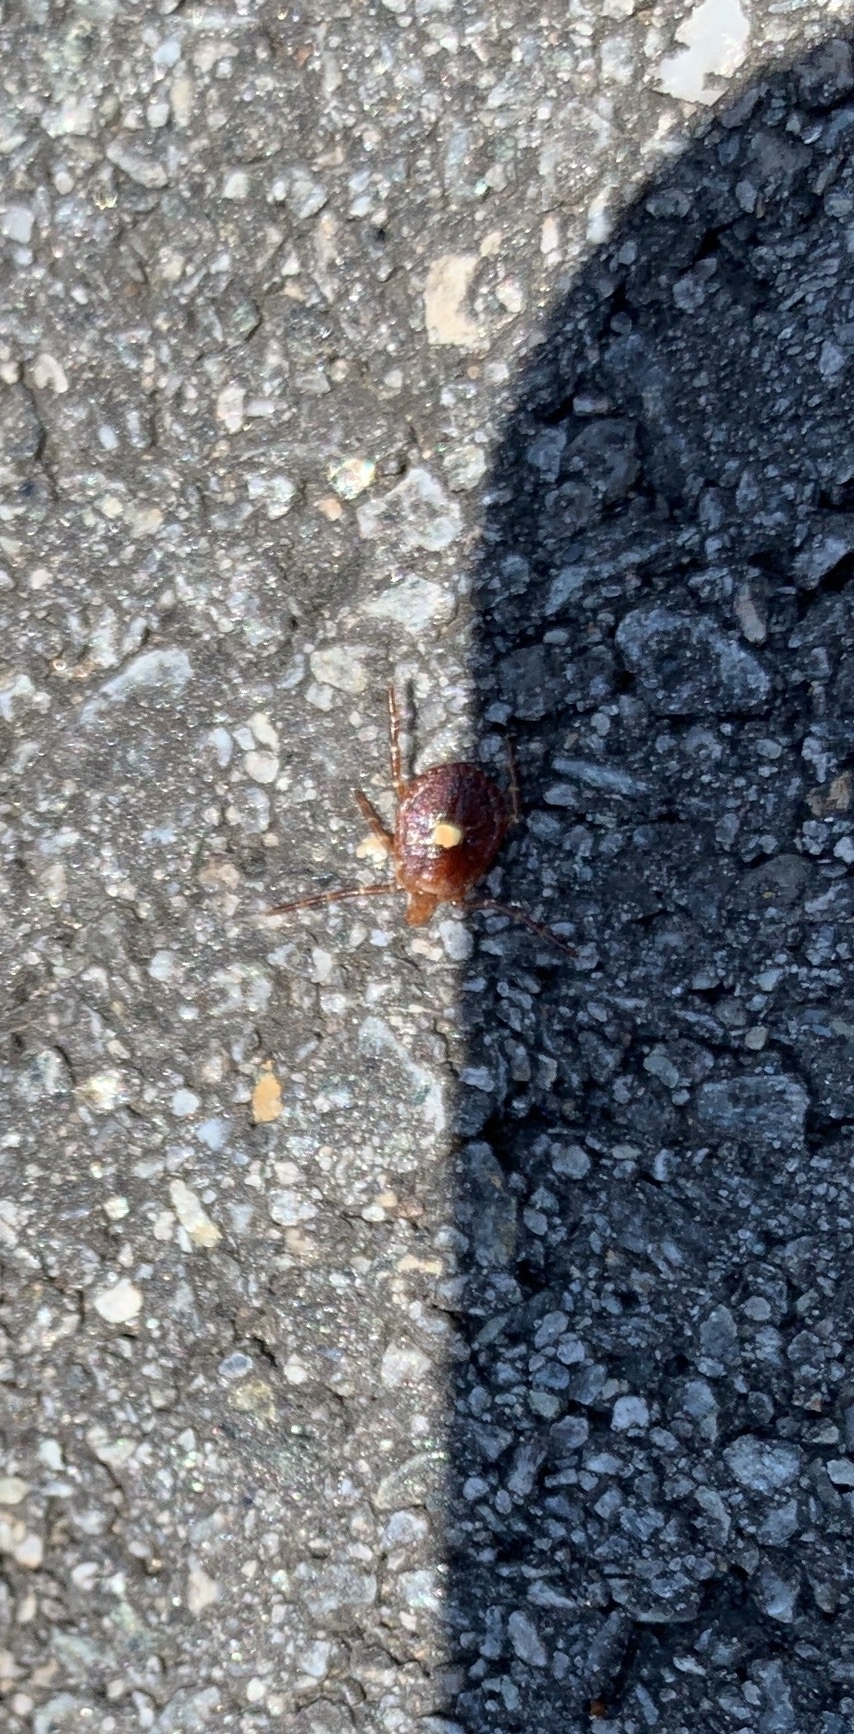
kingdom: Animalia
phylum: Arthropoda
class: Arachnida
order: Ixodida
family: Ixodidae
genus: Amblyomma
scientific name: Amblyomma americanum
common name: Lone star tick
